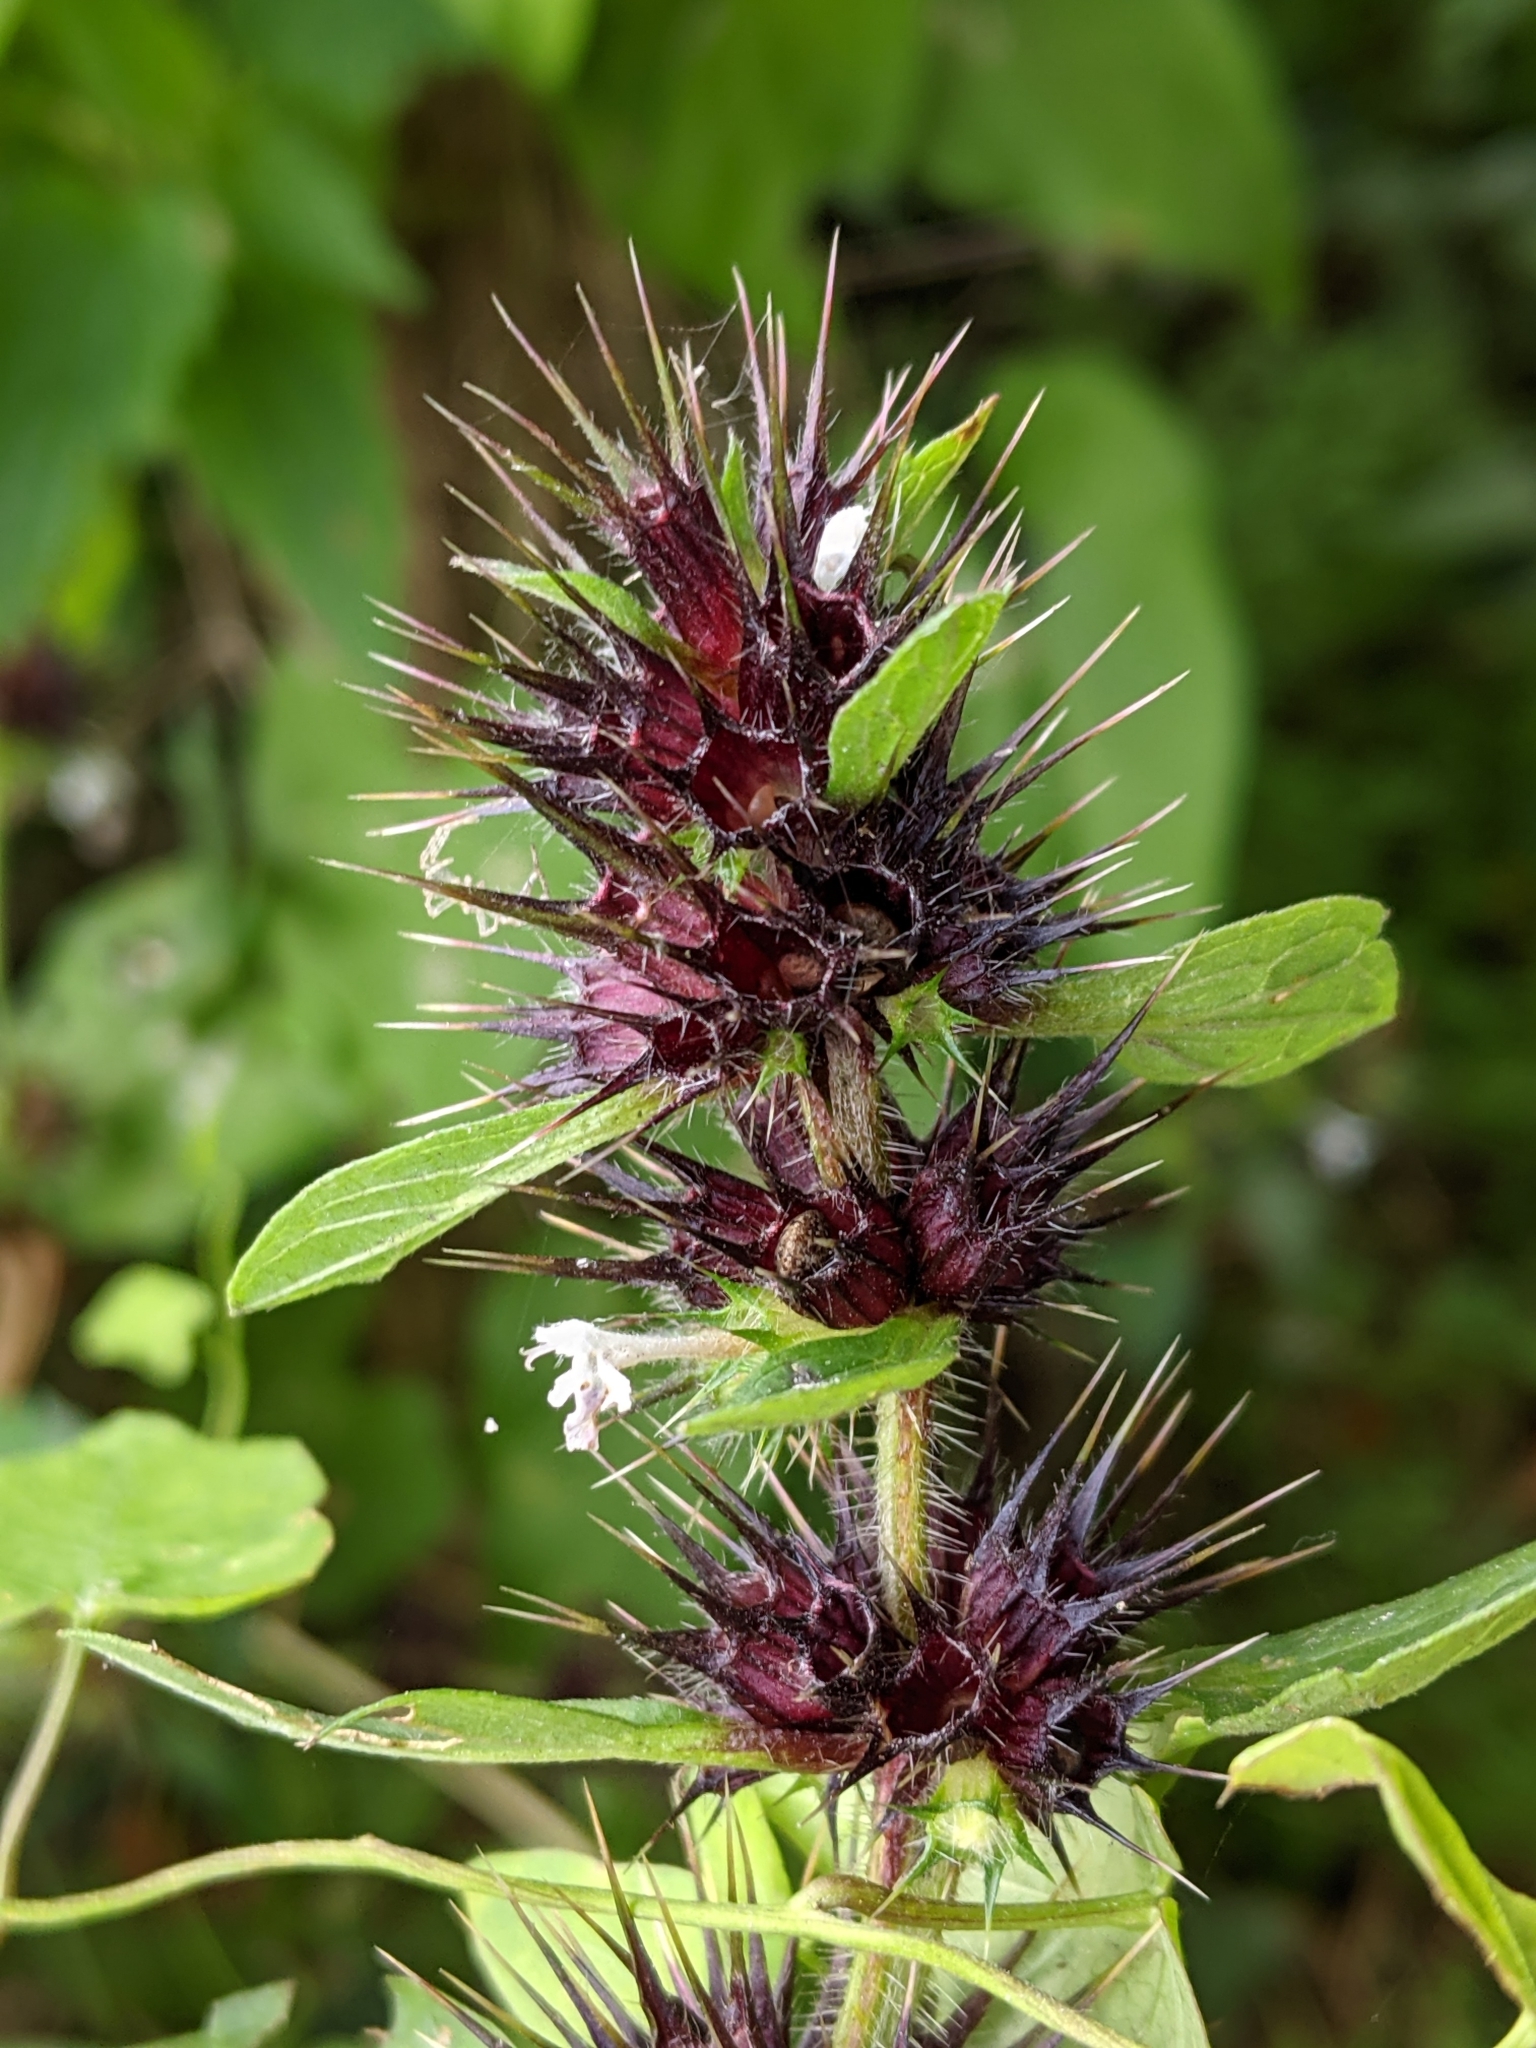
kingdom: Plantae
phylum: Tracheophyta
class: Magnoliopsida
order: Lamiales
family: Lamiaceae
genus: Galeopsis
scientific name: Galeopsis tetrahit
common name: Common hemp-nettle
